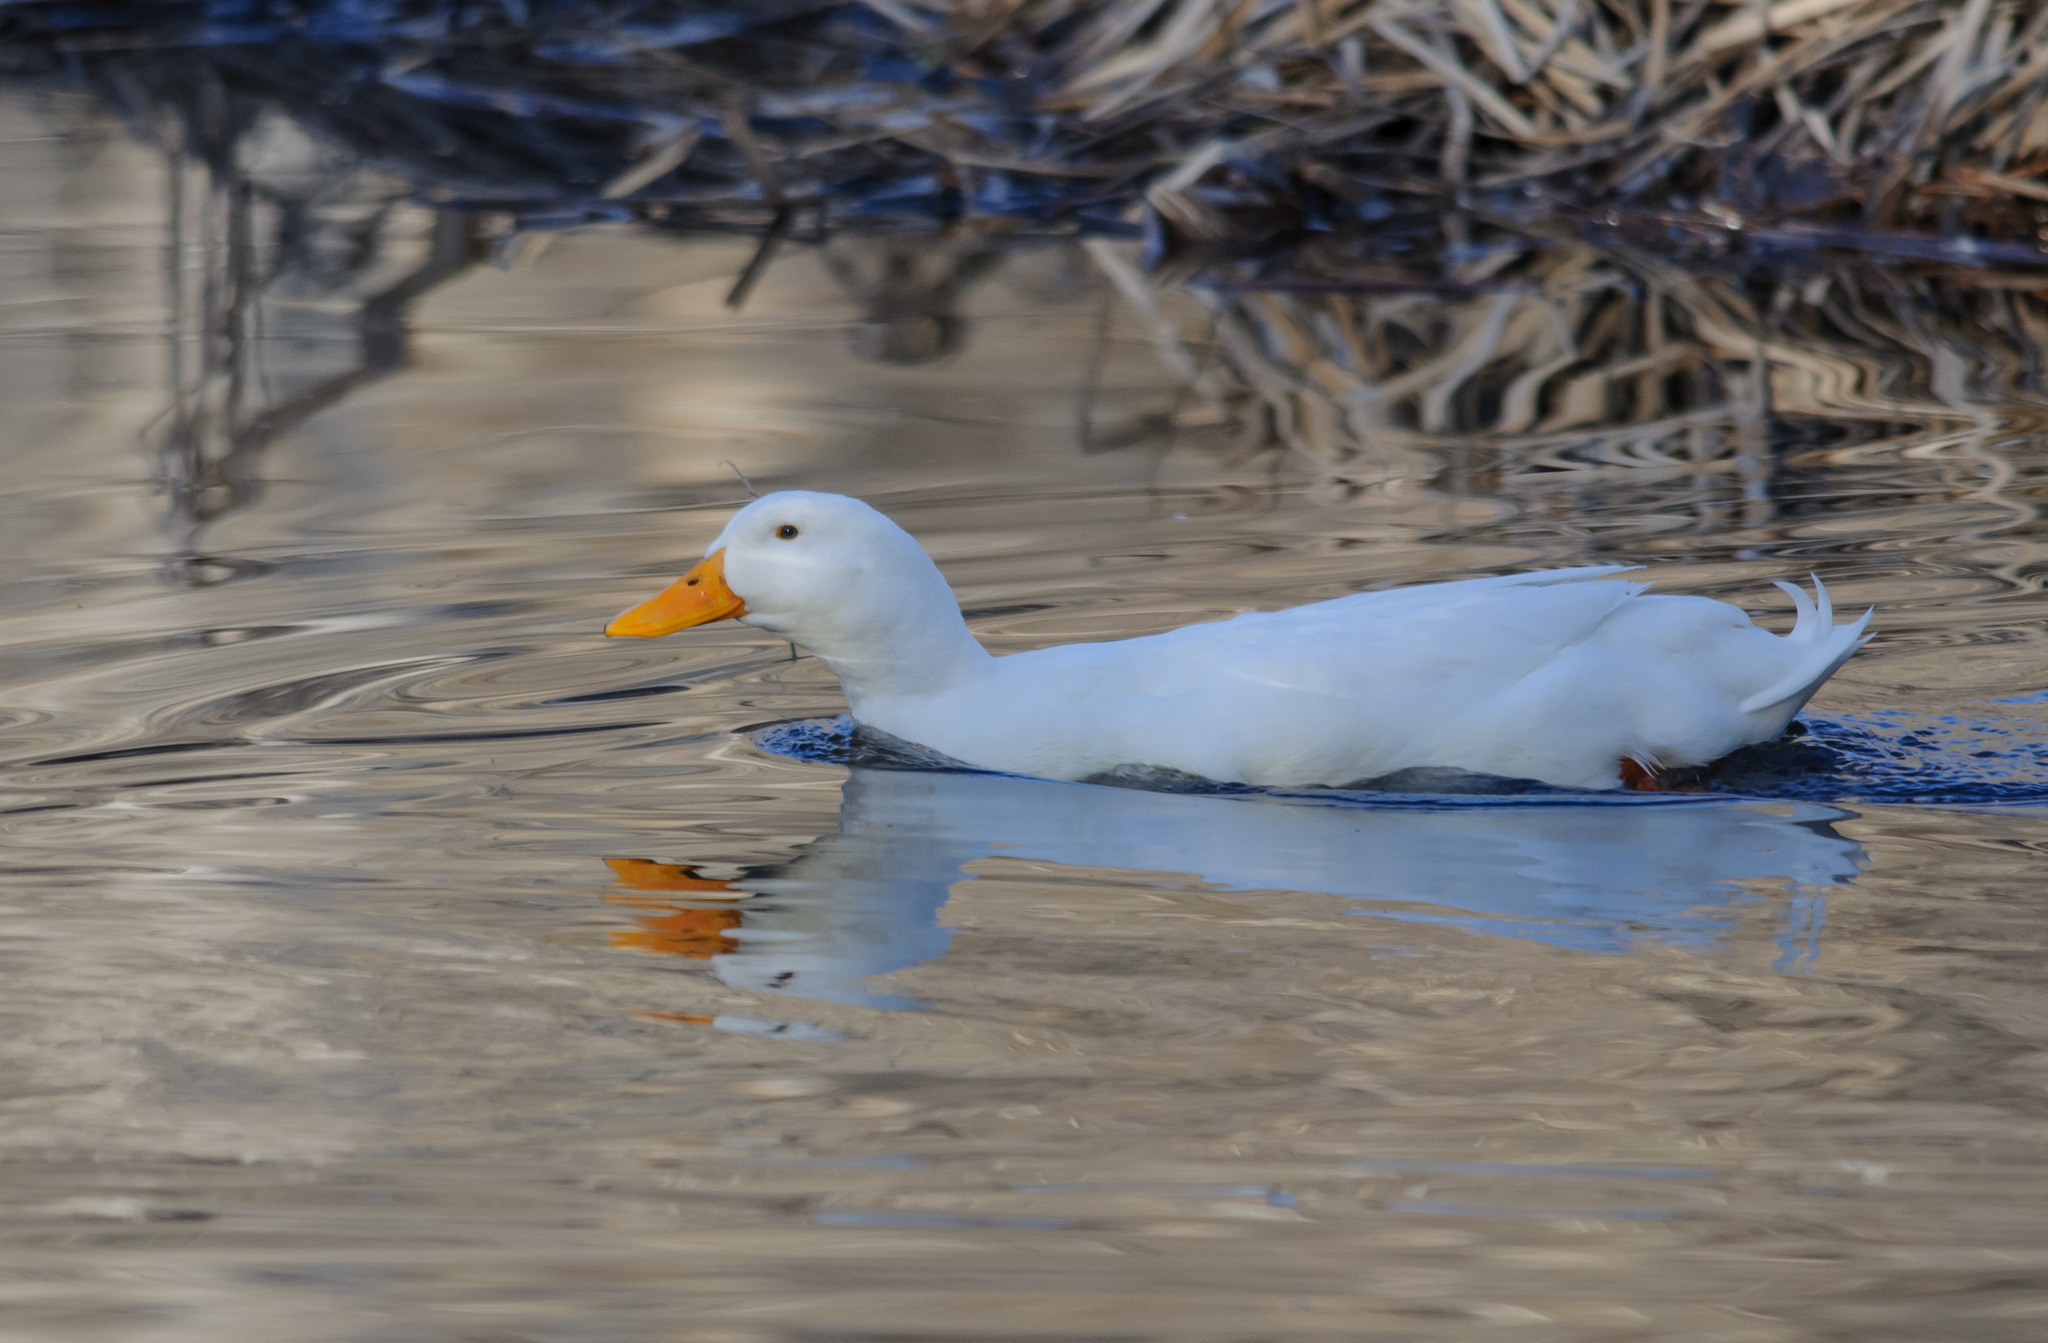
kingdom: Animalia
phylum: Chordata
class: Aves
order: Anseriformes
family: Anatidae
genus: Anas
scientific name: Anas platyrhynchos
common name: Mallard
